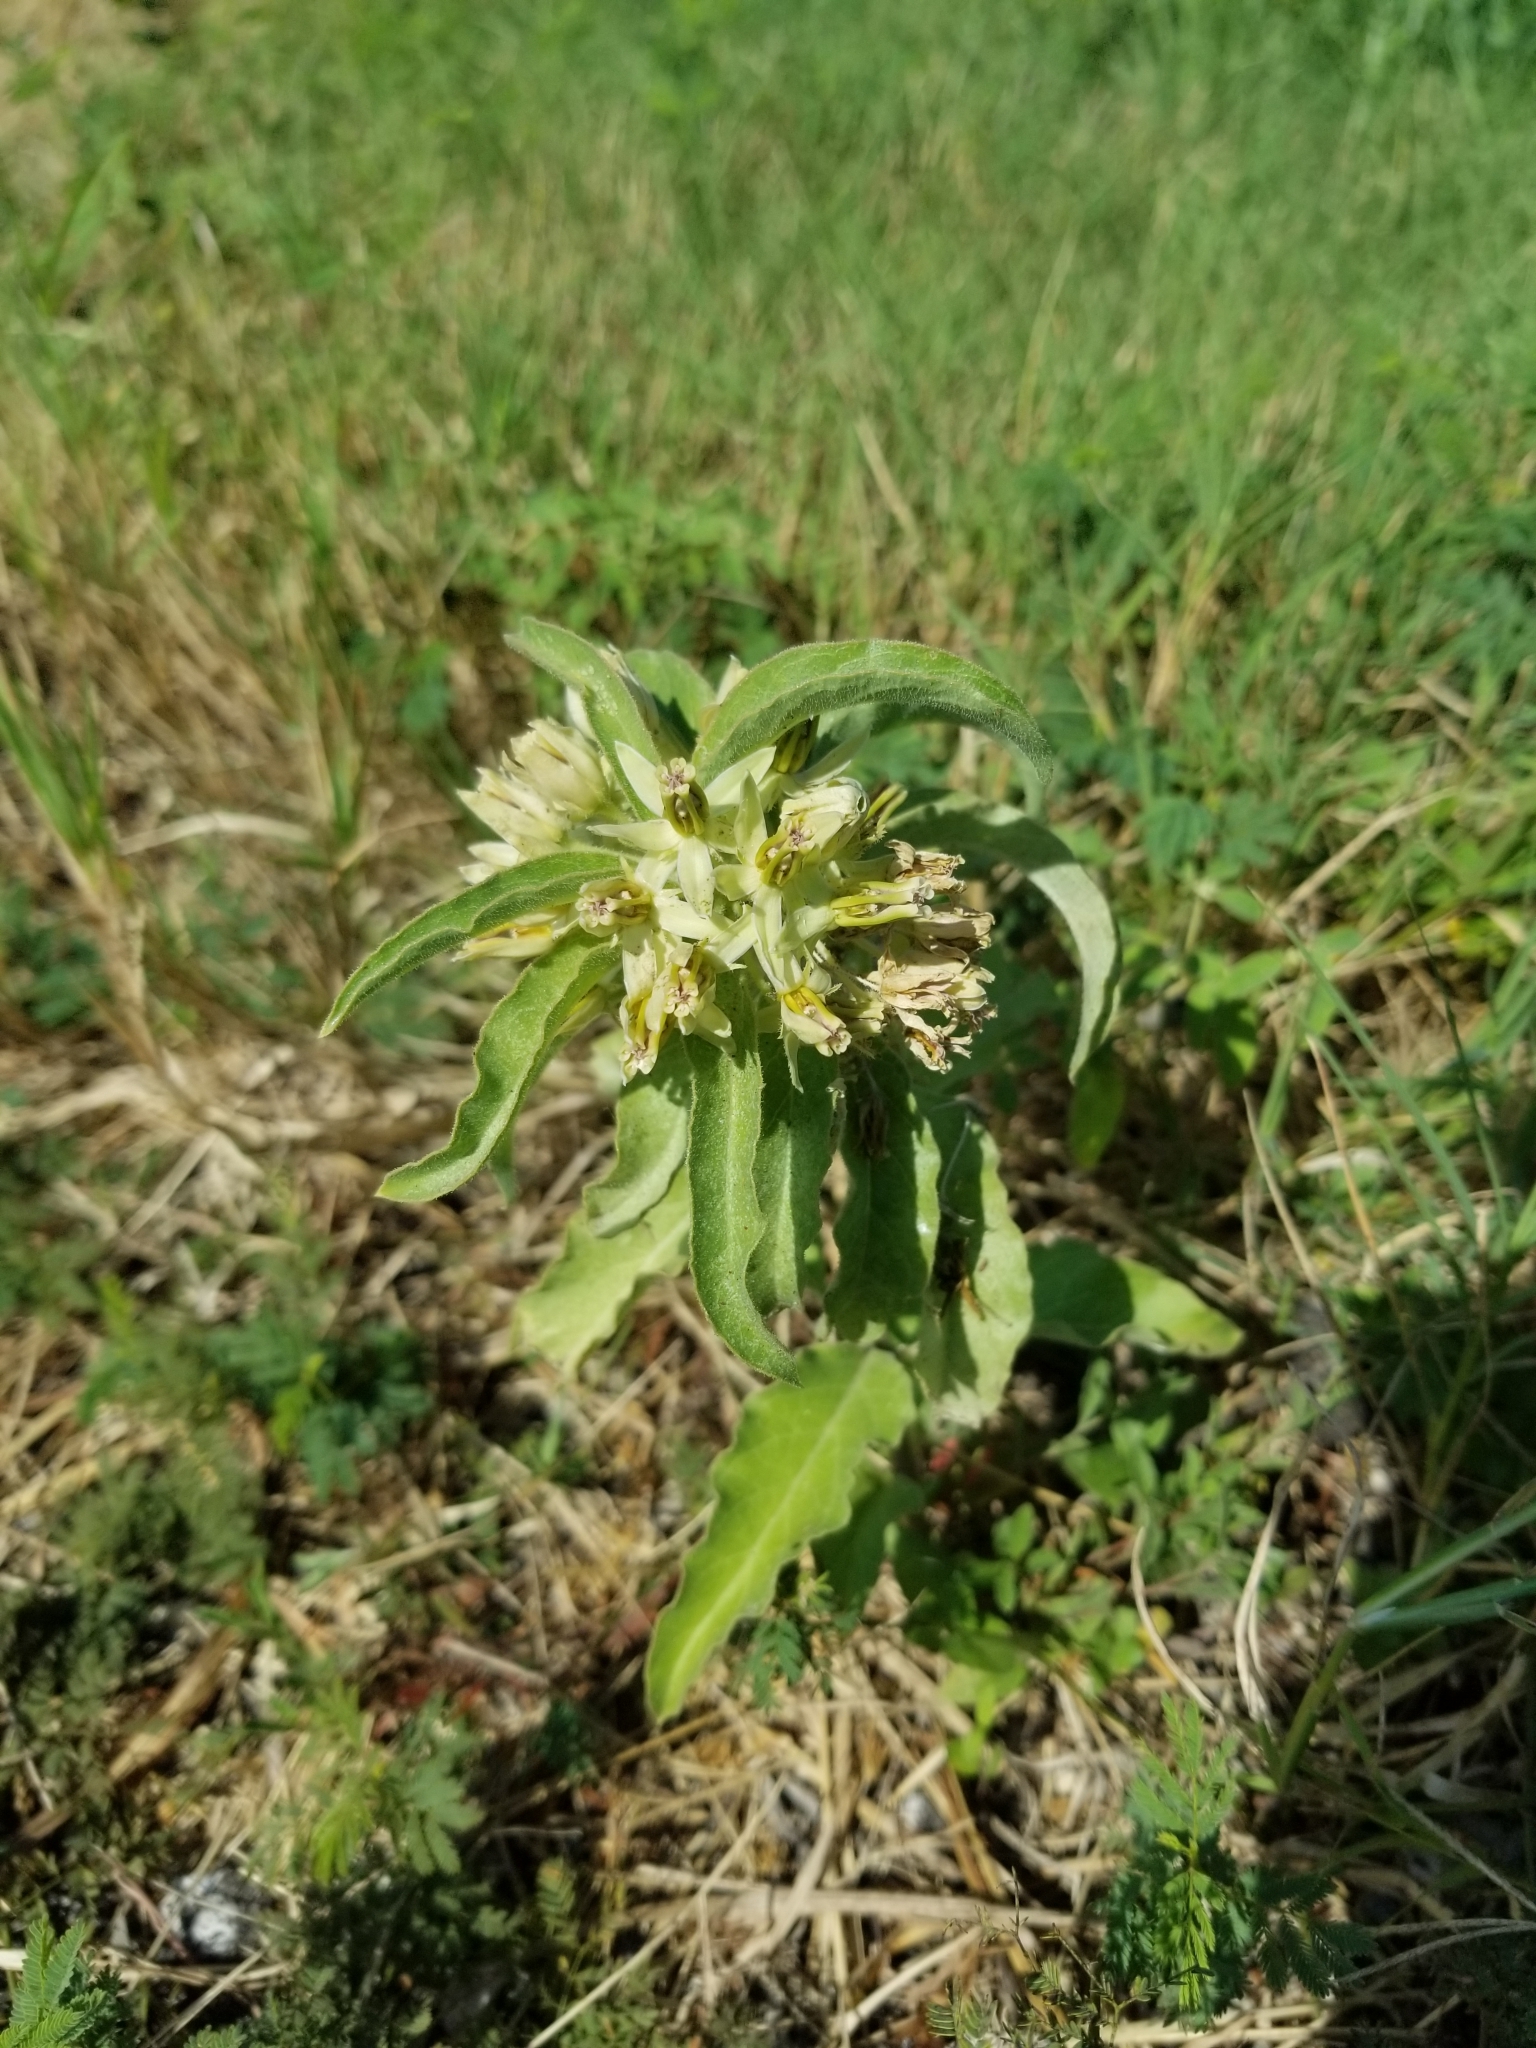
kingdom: Plantae
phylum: Tracheophyta
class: Magnoliopsida
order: Gentianales
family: Apocynaceae
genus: Asclepias
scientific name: Asclepias oenotheroides
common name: Zizotes milkweed
